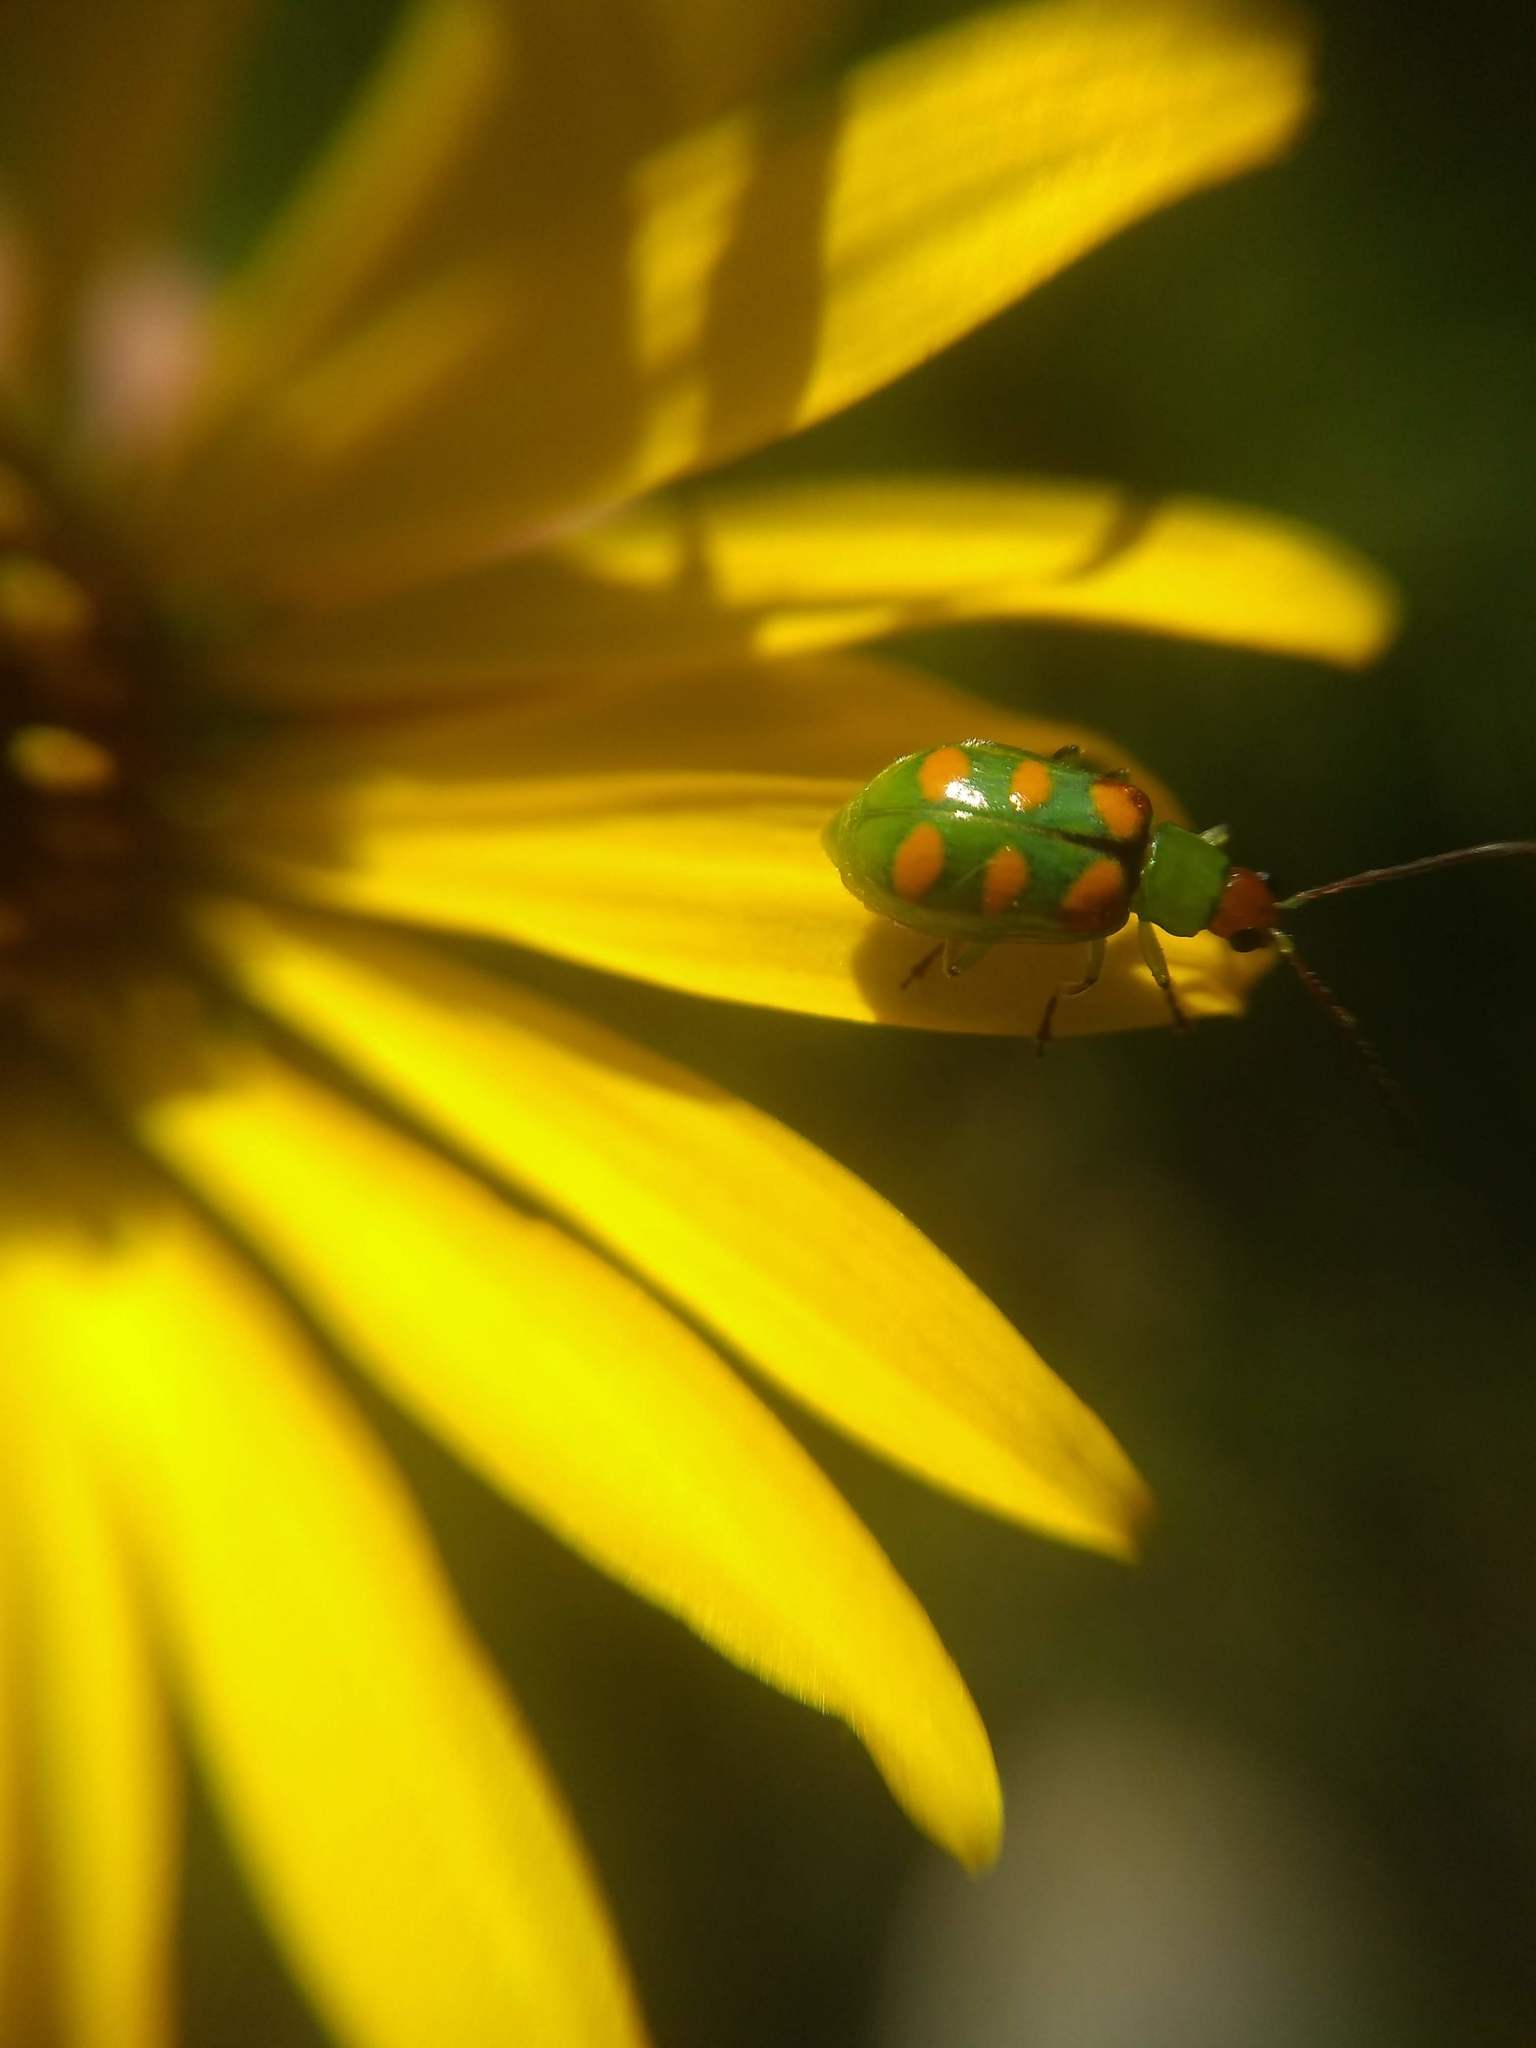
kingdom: Animalia
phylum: Arthropoda
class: Insecta
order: Coleoptera
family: Chrysomelidae
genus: Diabrotica
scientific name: Diabrotica speciosa
